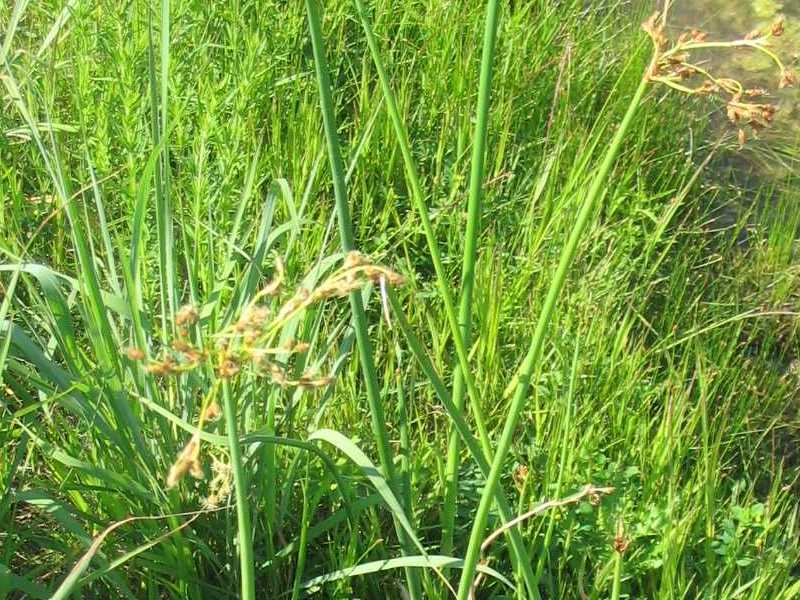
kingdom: Plantae
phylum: Tracheophyta
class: Liliopsida
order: Poales
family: Cyperaceae
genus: Schoenoplectus
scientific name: Schoenoplectus tabernaemontani
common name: Grey club-rush
